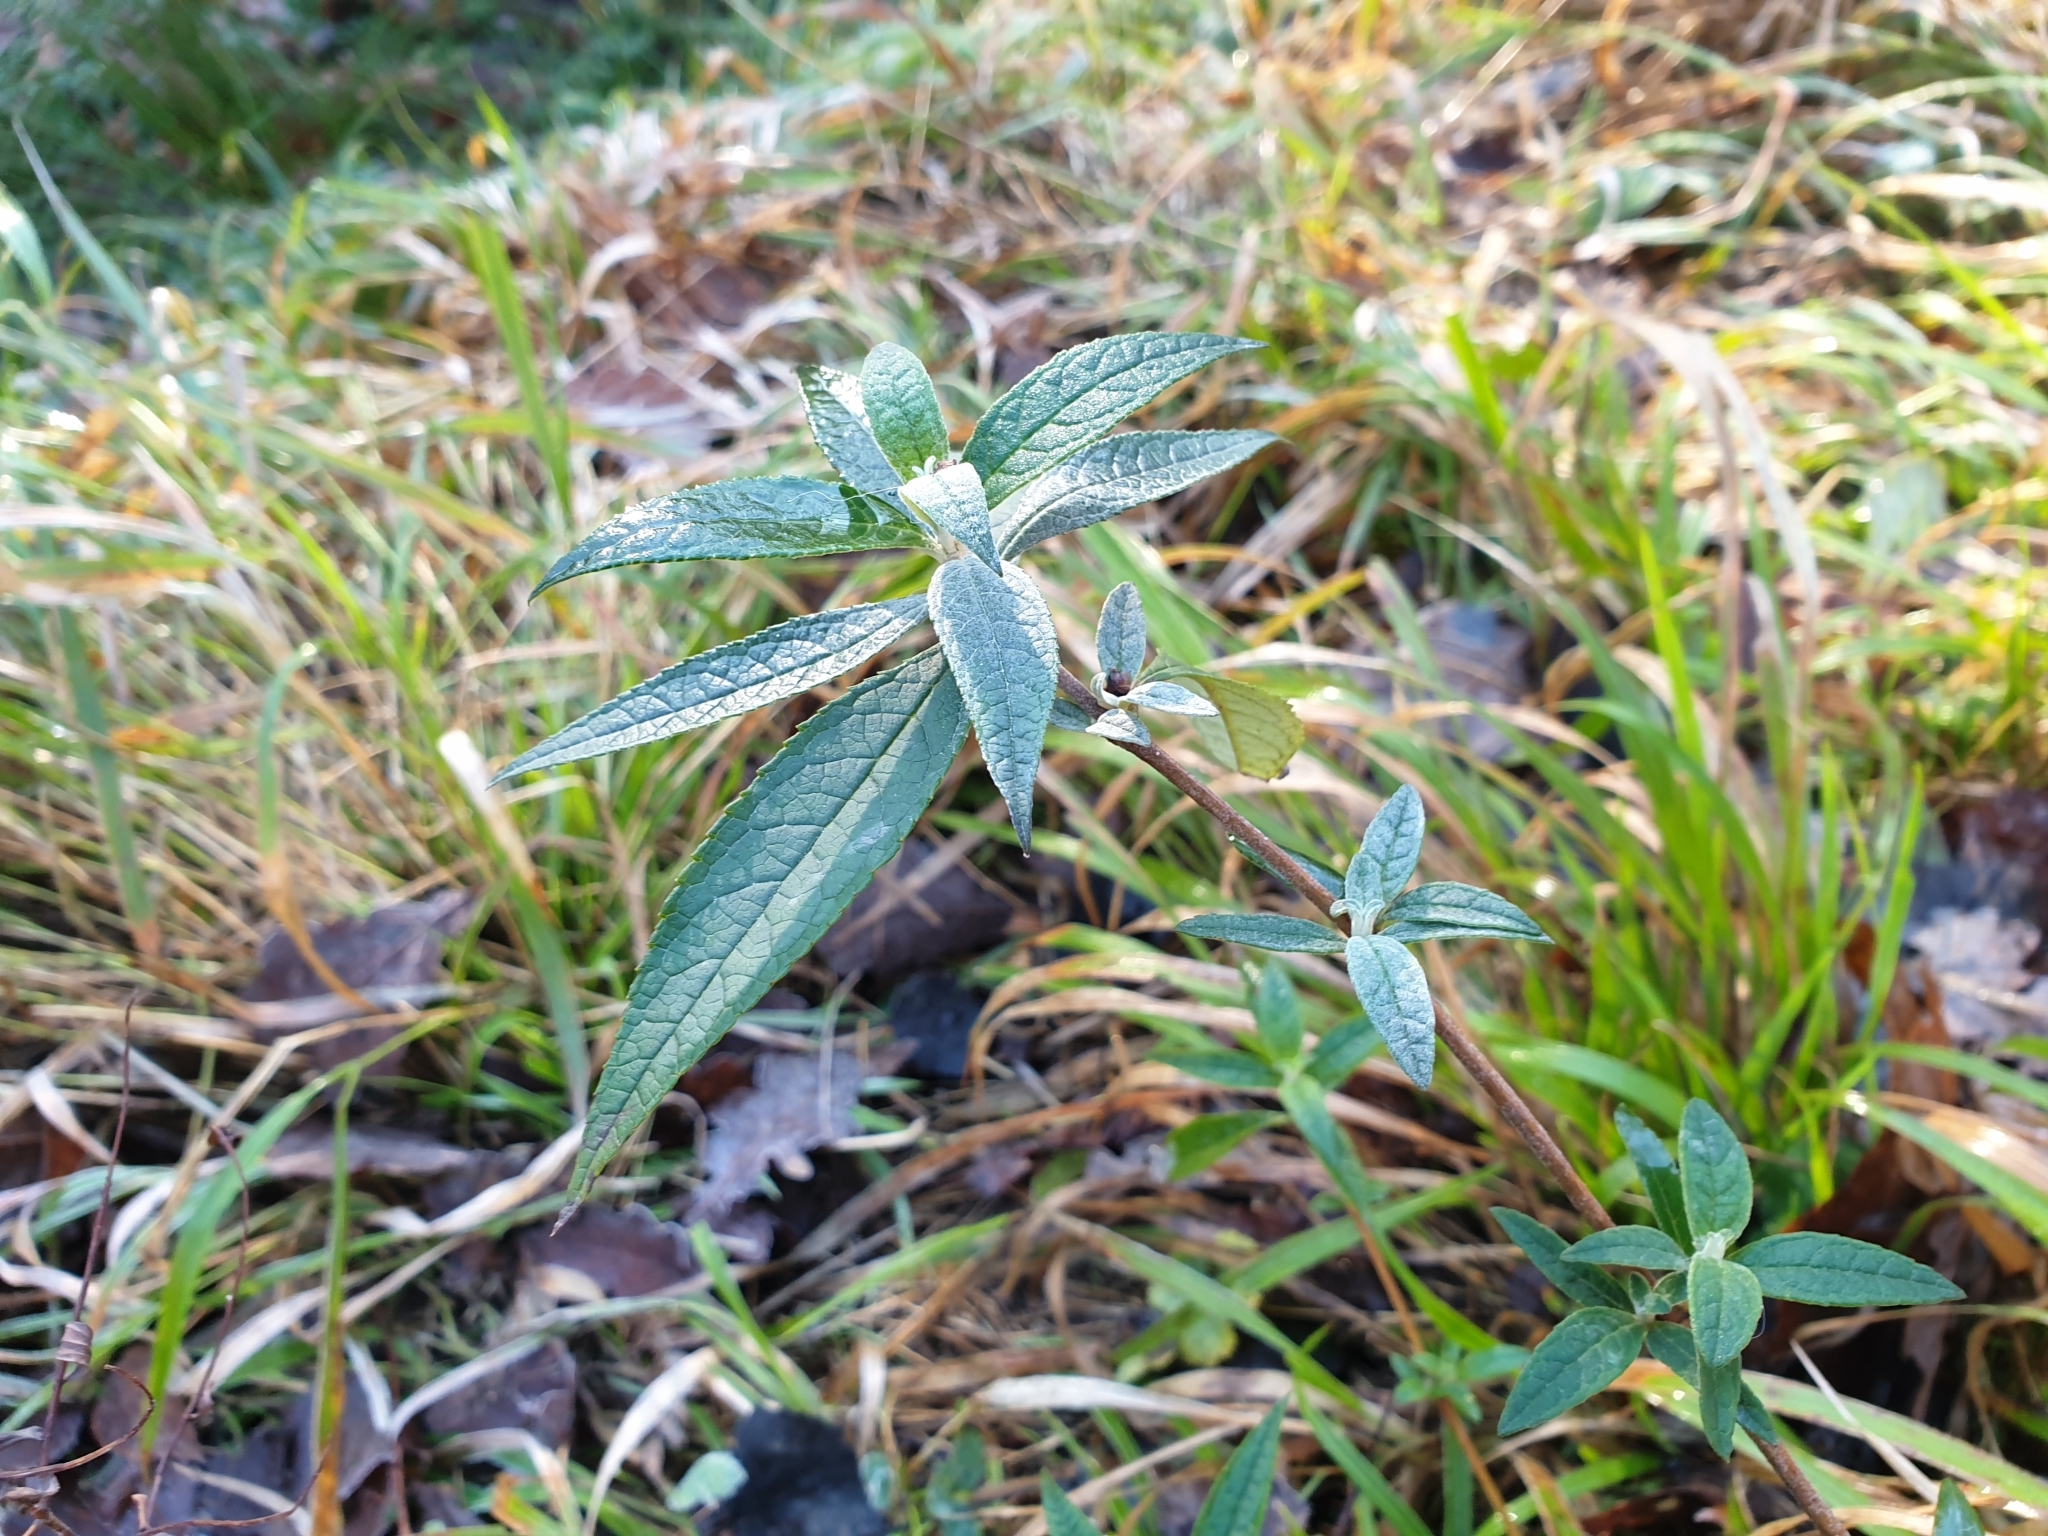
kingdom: Plantae
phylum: Tracheophyta
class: Magnoliopsida
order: Lamiales
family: Scrophulariaceae
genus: Buddleja
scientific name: Buddleja davidii
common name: Butterfly-bush
